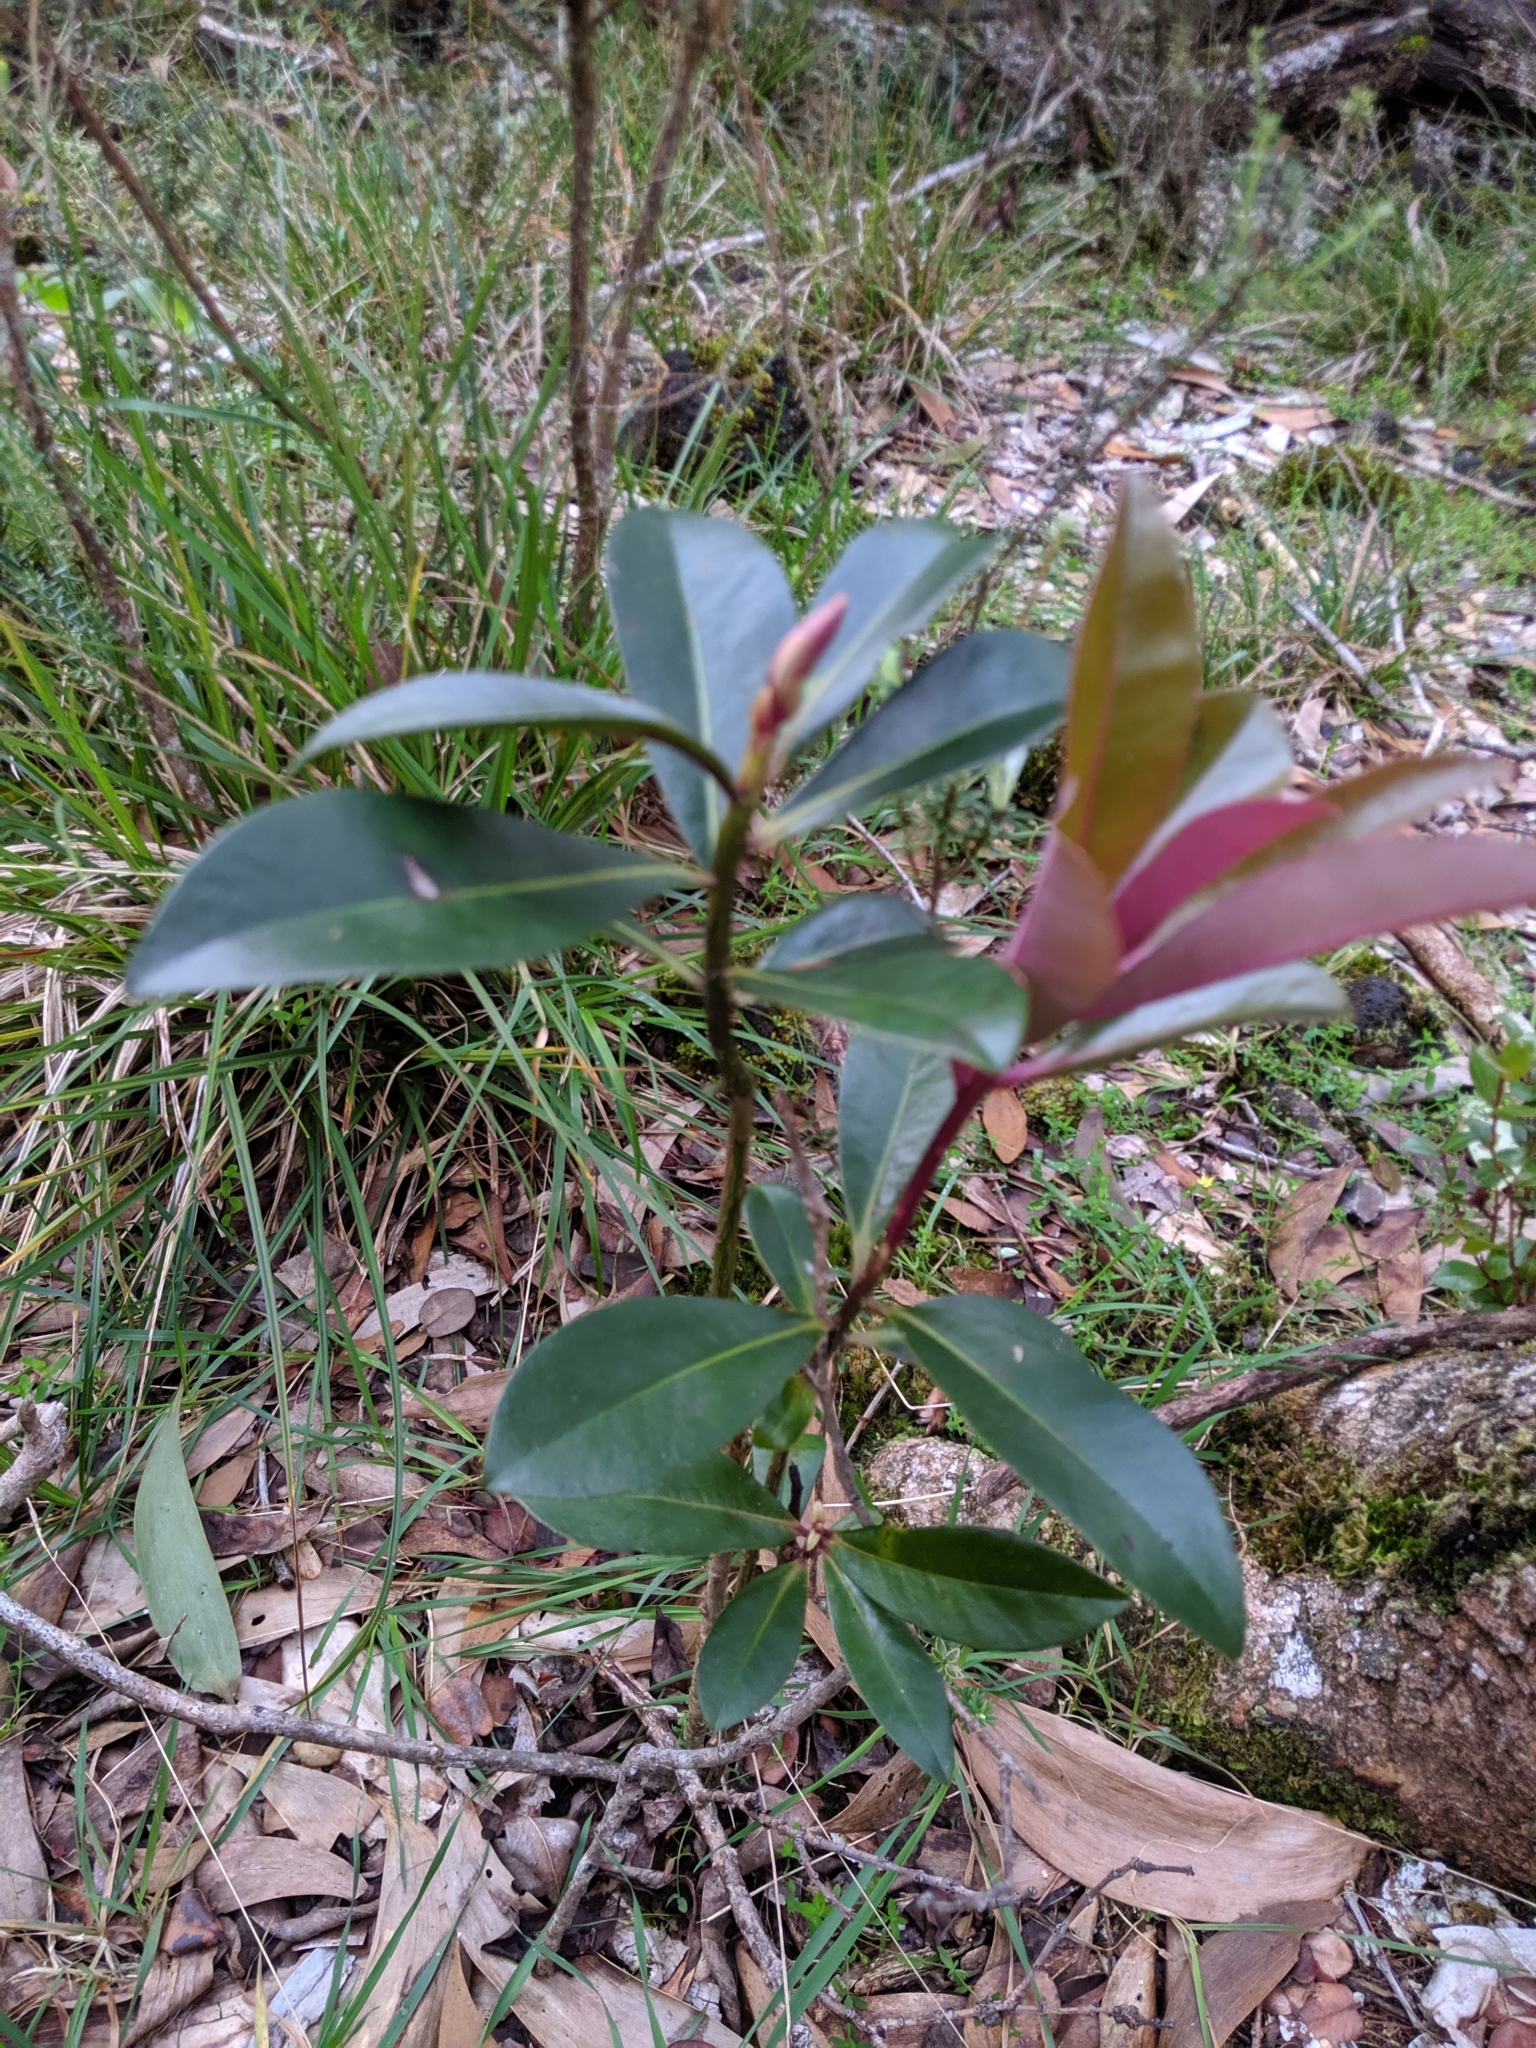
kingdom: Plantae
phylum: Tracheophyta
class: Magnoliopsida
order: Ericales
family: Primulaceae
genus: Myrsine
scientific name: Myrsine lessertiana
